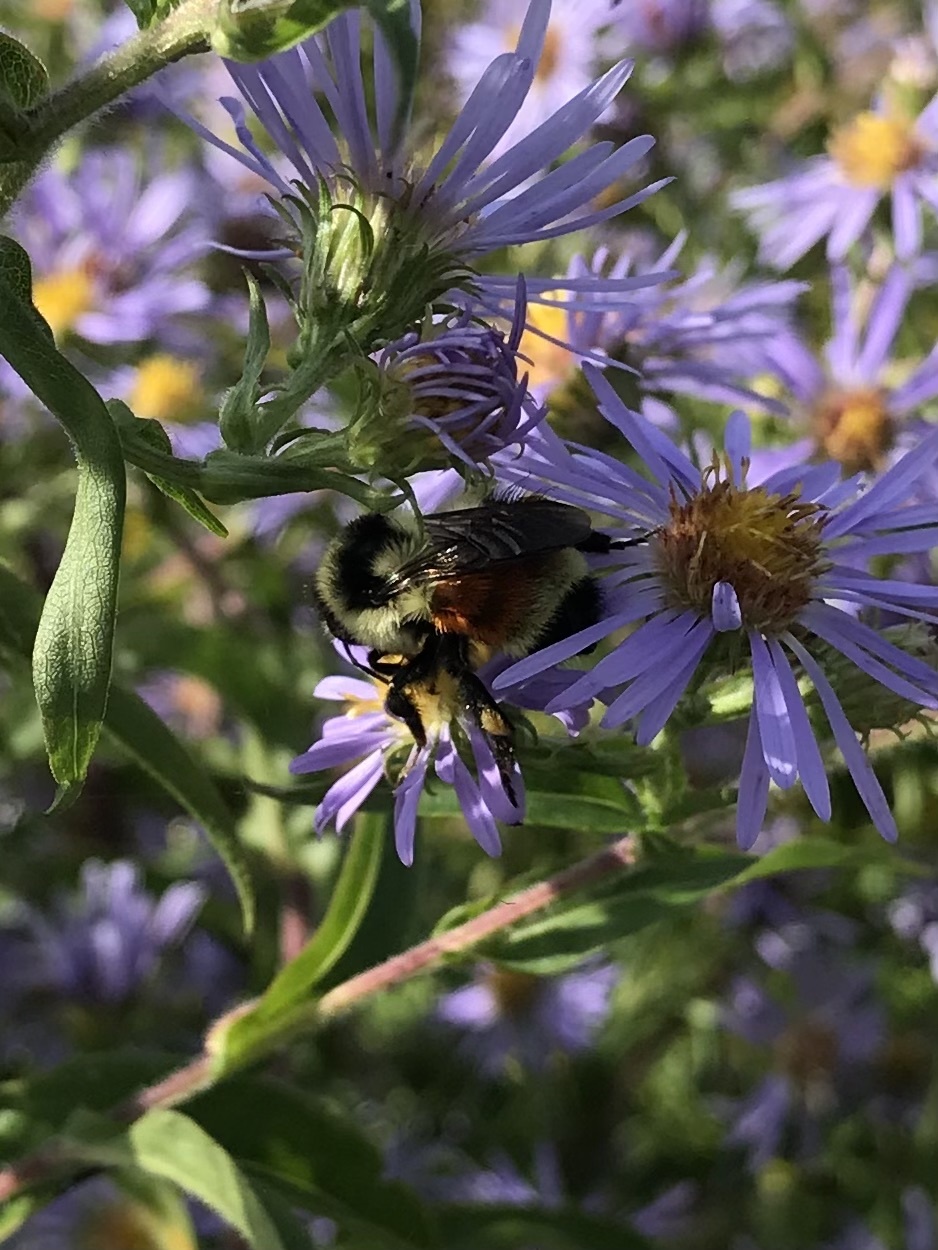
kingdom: Animalia
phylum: Arthropoda
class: Insecta
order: Hymenoptera
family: Apidae
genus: Bombus
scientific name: Bombus ternarius
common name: Tri-colored bumble bee
